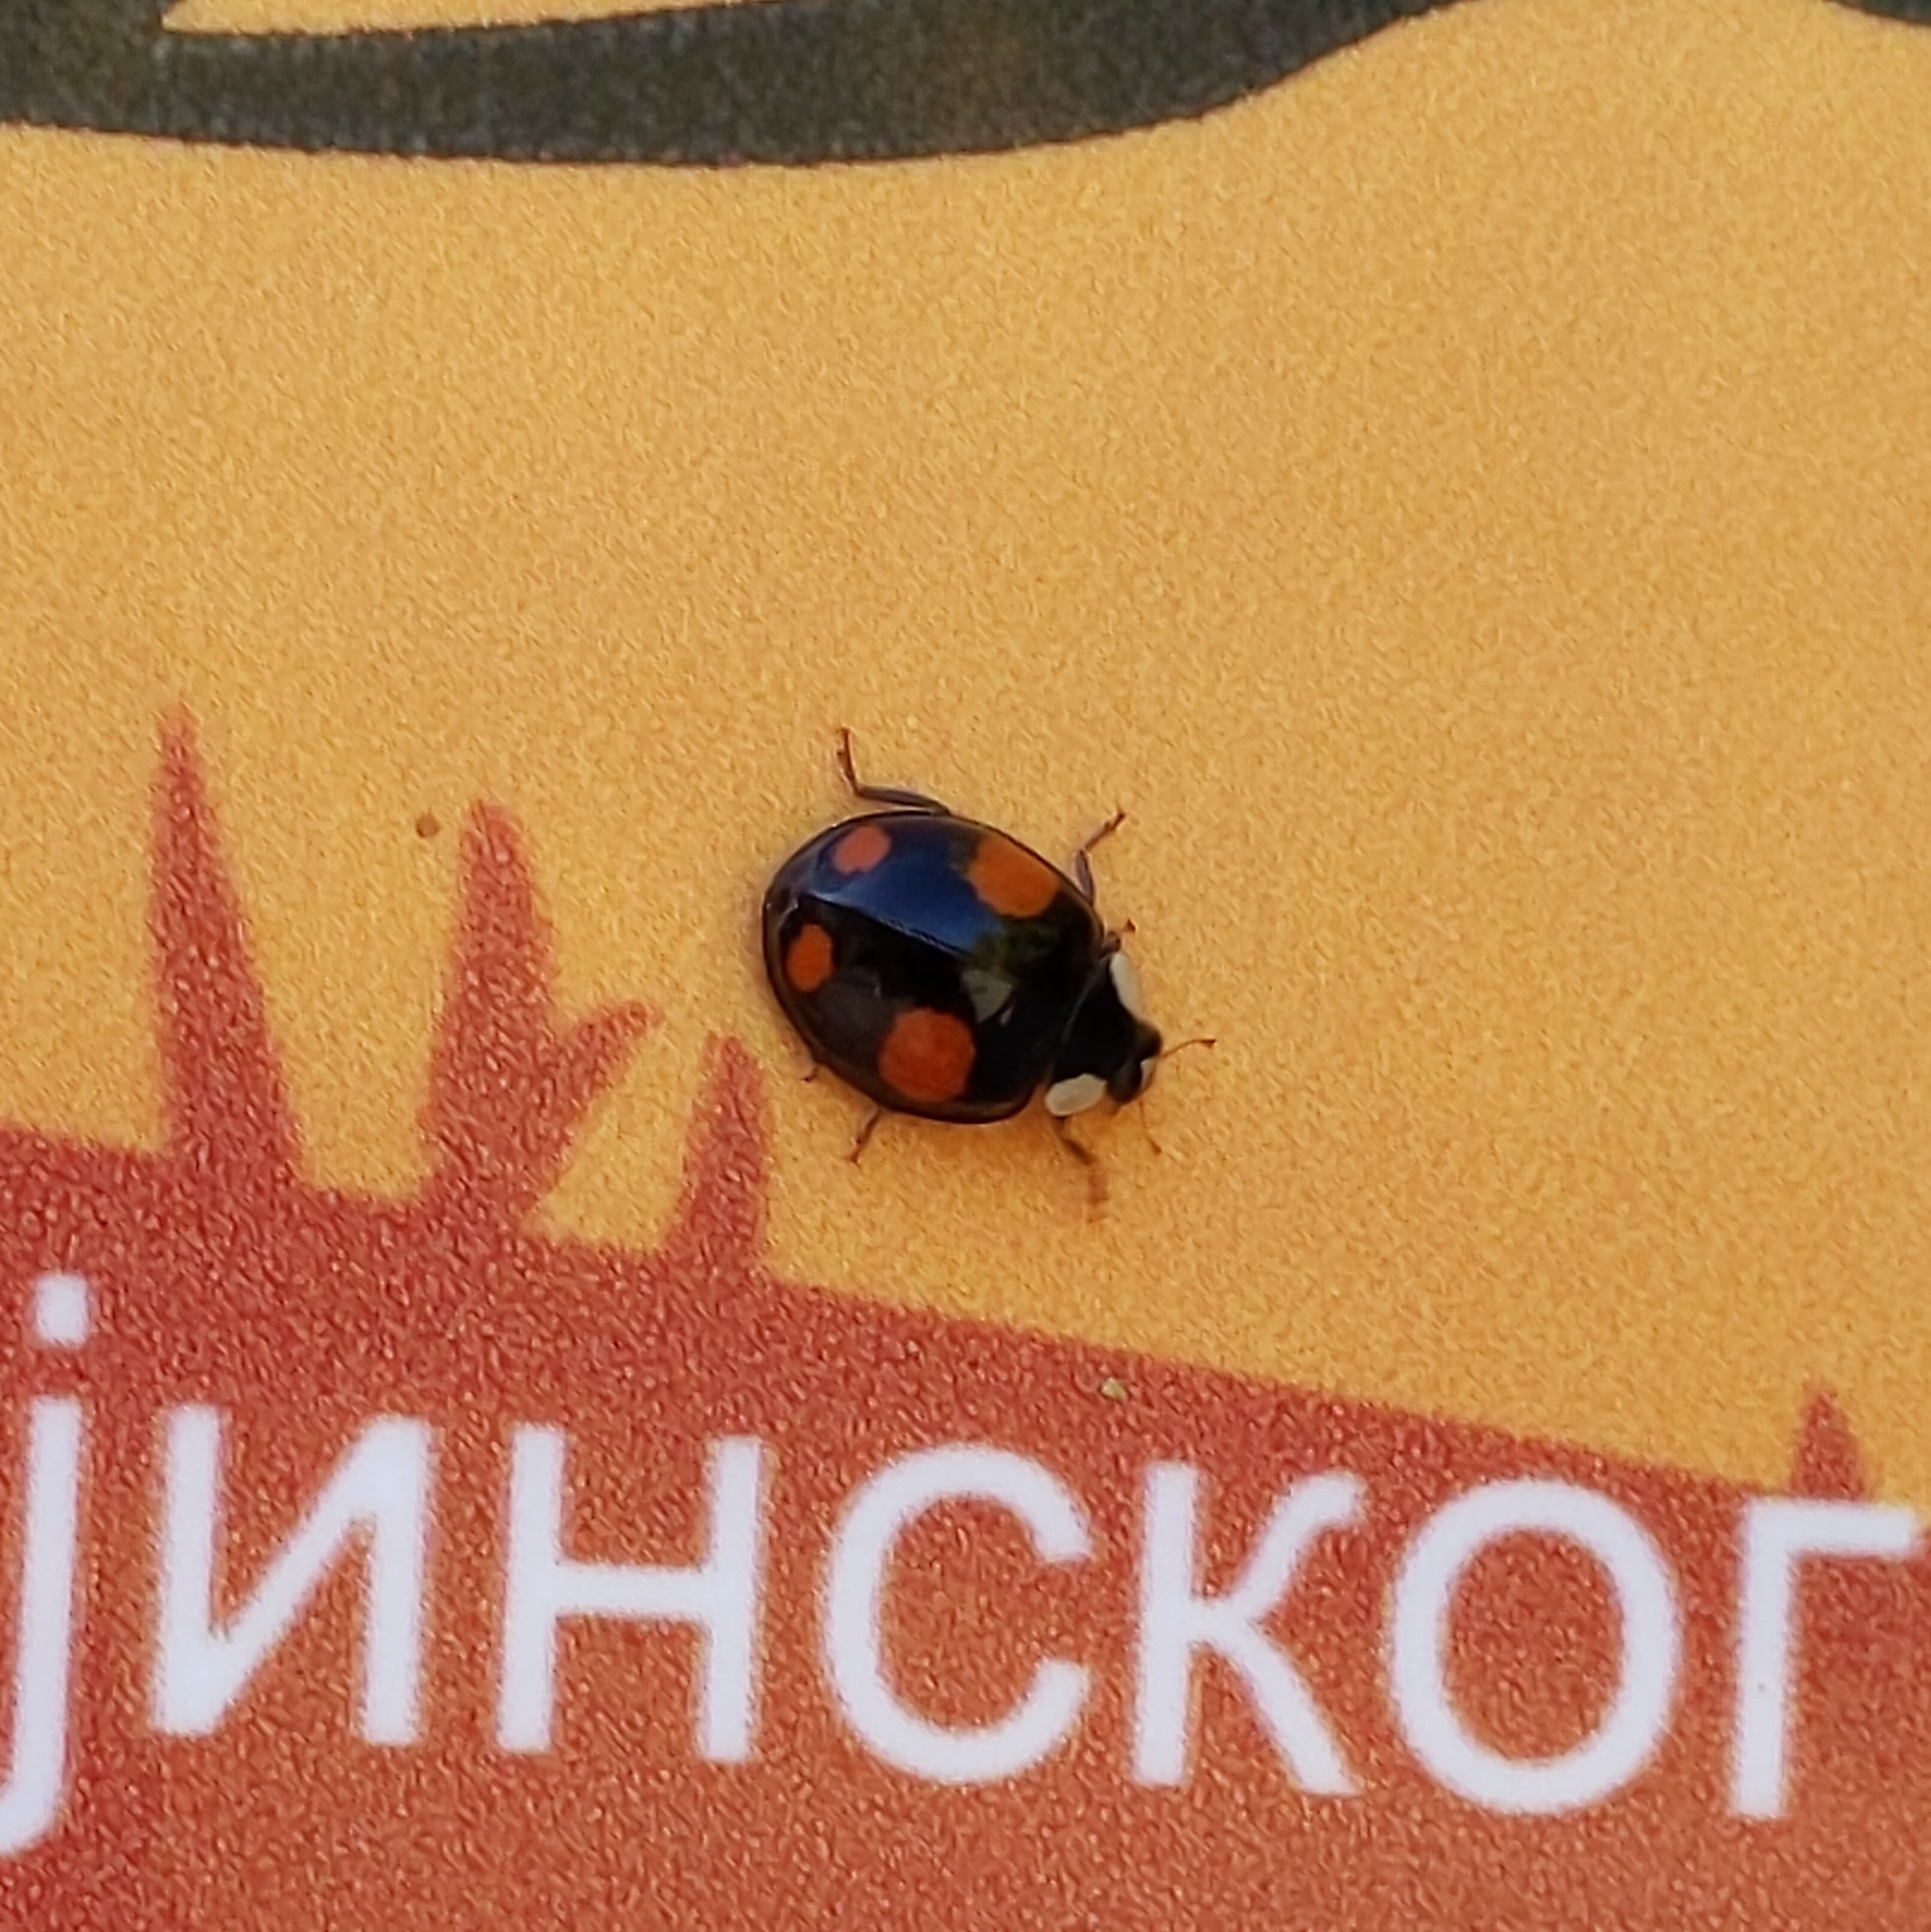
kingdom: Animalia
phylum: Arthropoda
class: Insecta
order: Coleoptera
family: Coccinellidae
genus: Harmonia
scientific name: Harmonia axyridis
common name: Harlequin ladybird
